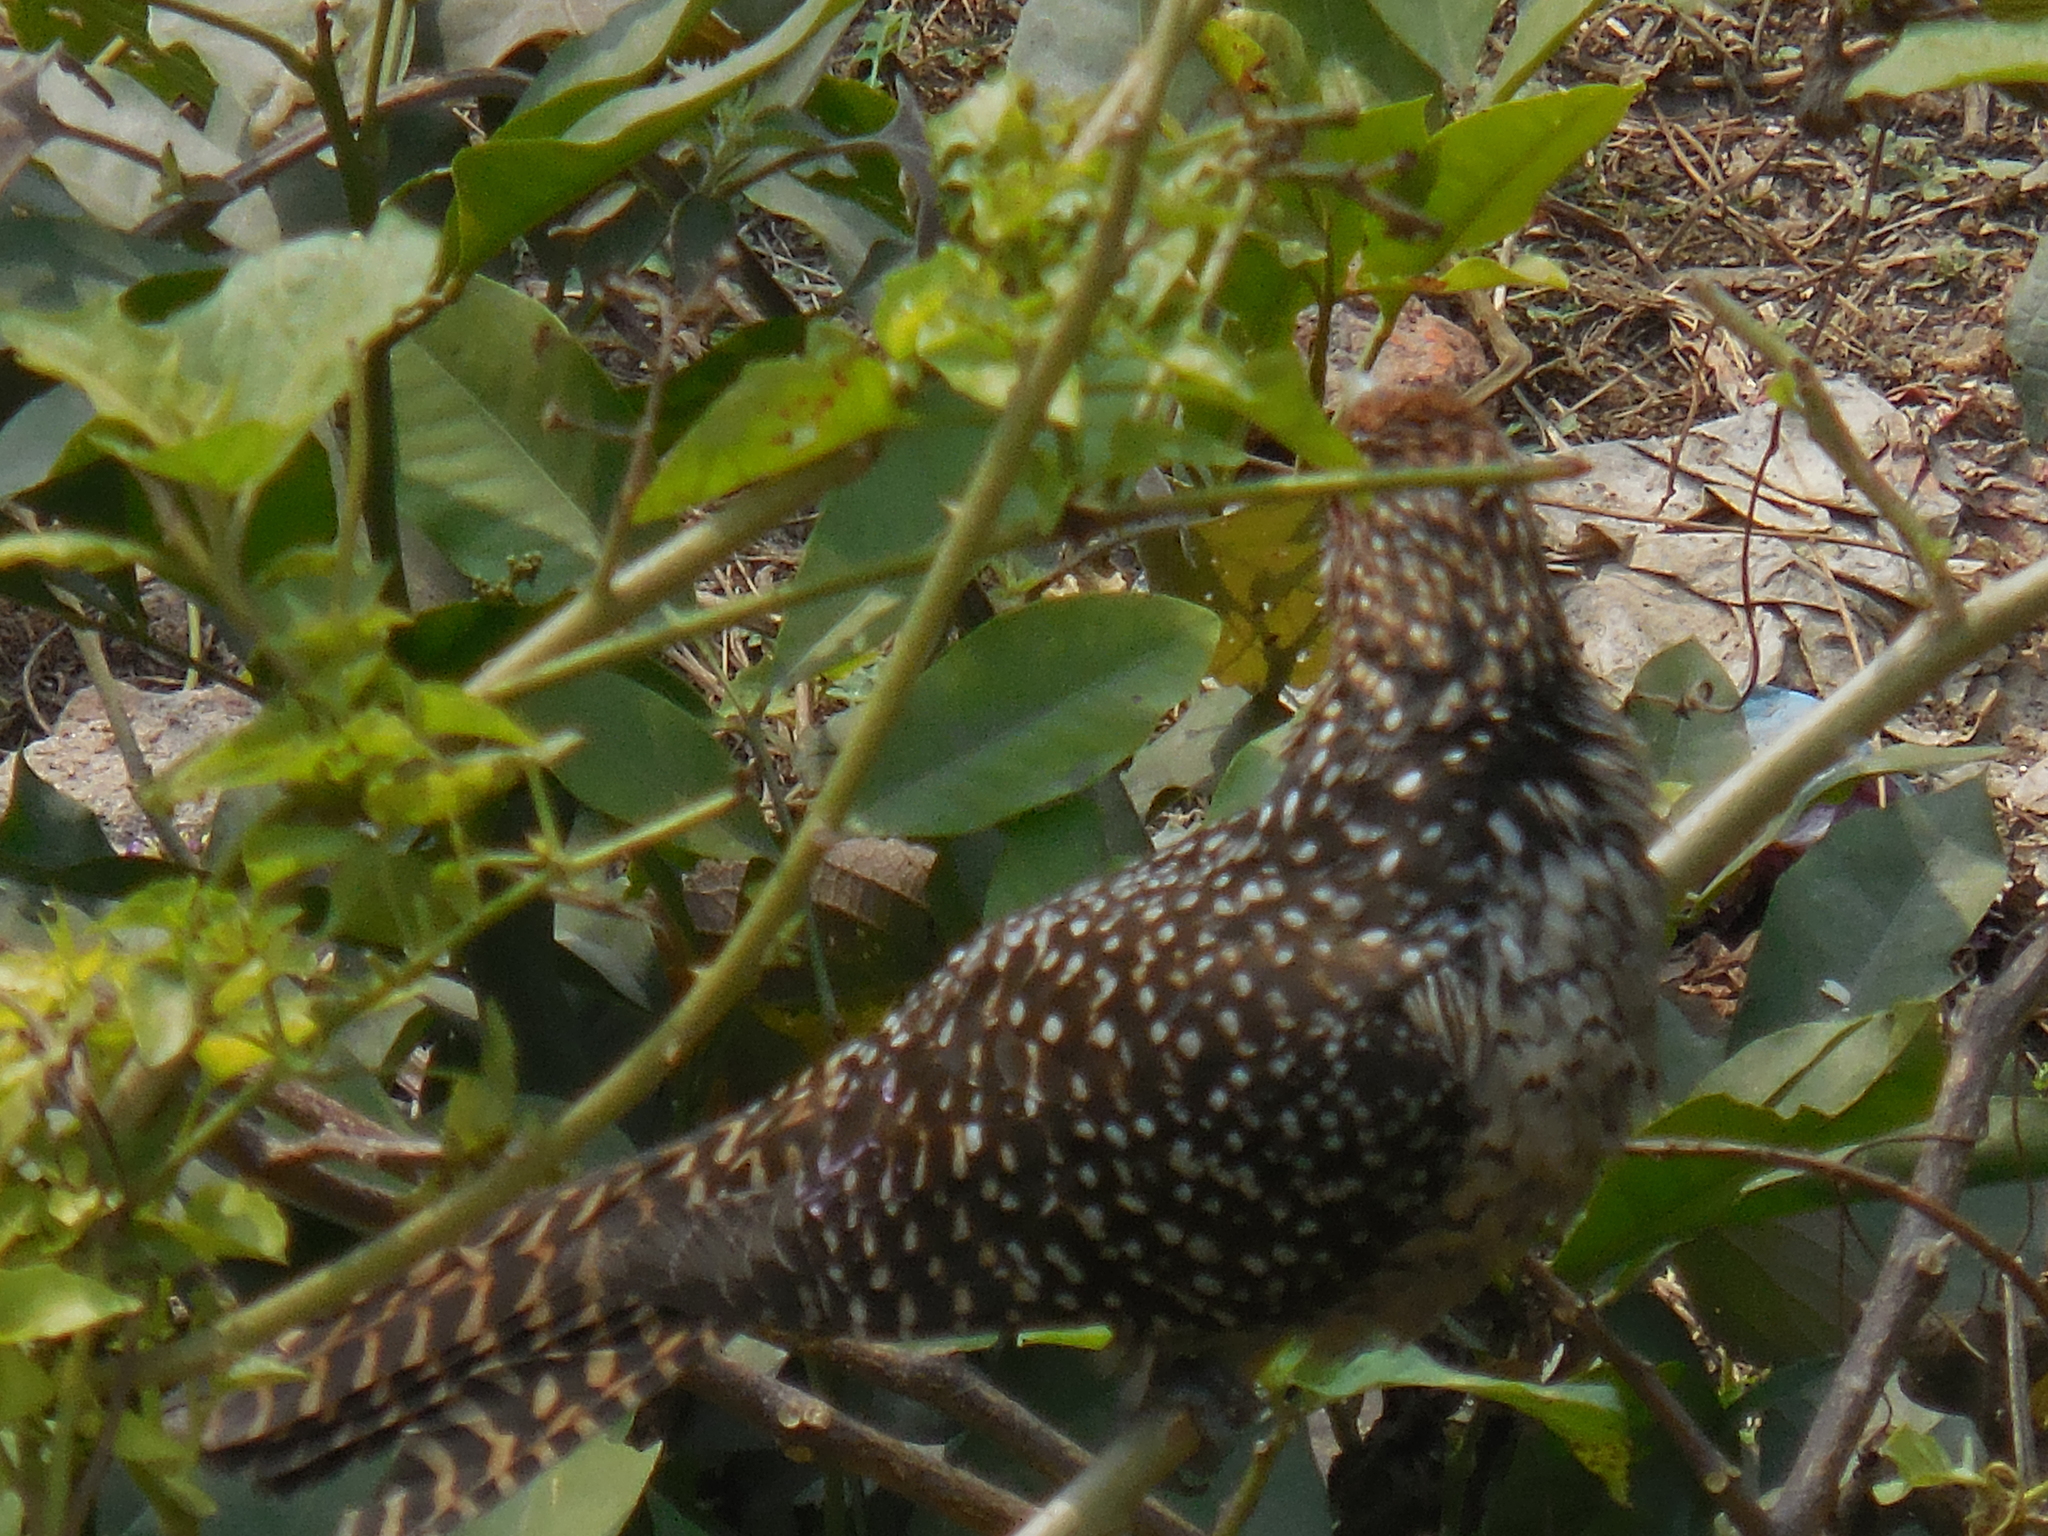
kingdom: Animalia
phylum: Chordata
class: Aves
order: Cuculiformes
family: Cuculidae
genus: Eudynamys
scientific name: Eudynamys scolopaceus
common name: Asian koel
